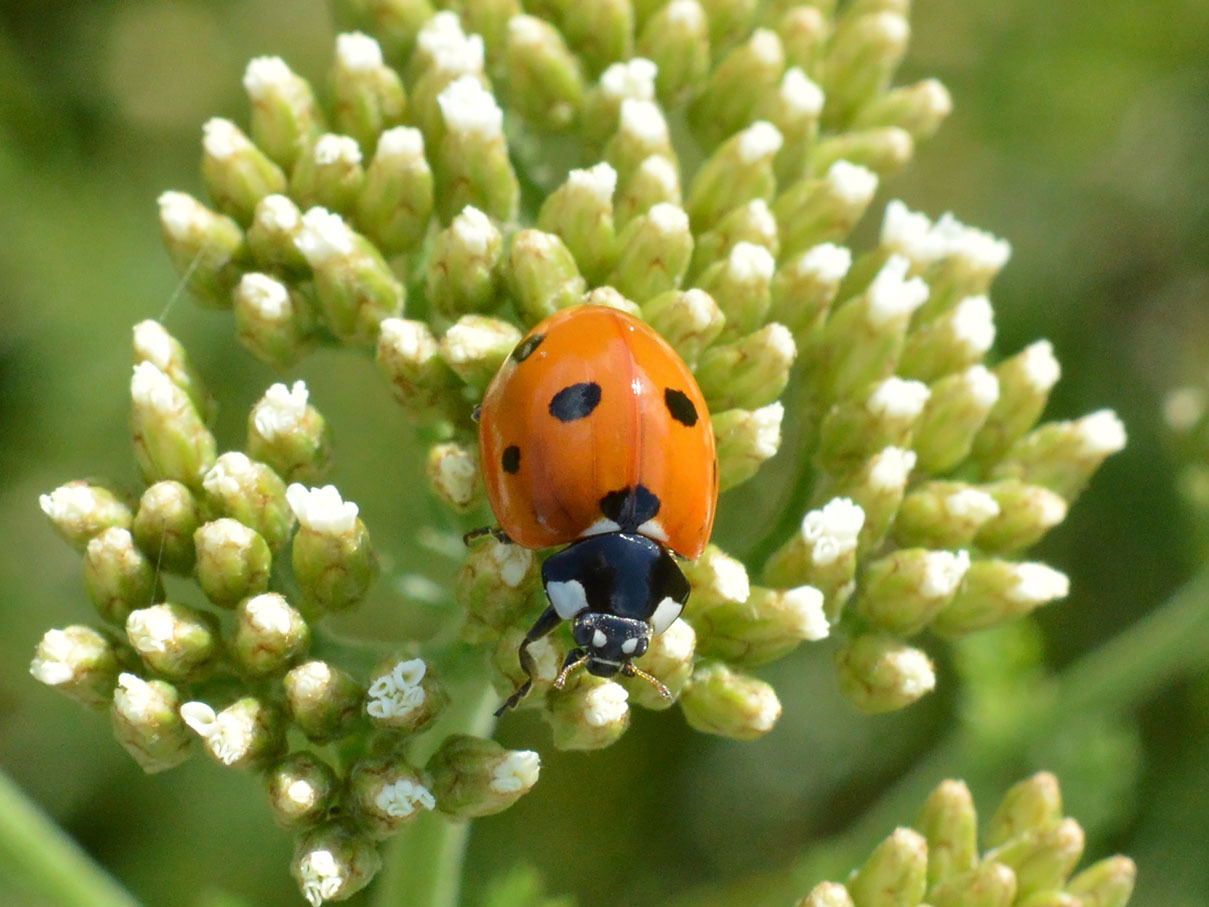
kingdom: Animalia
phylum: Arthropoda
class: Insecta
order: Coleoptera
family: Coccinellidae
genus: Coccinella
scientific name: Coccinella septempunctata
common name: Sevenspotted lady beetle
